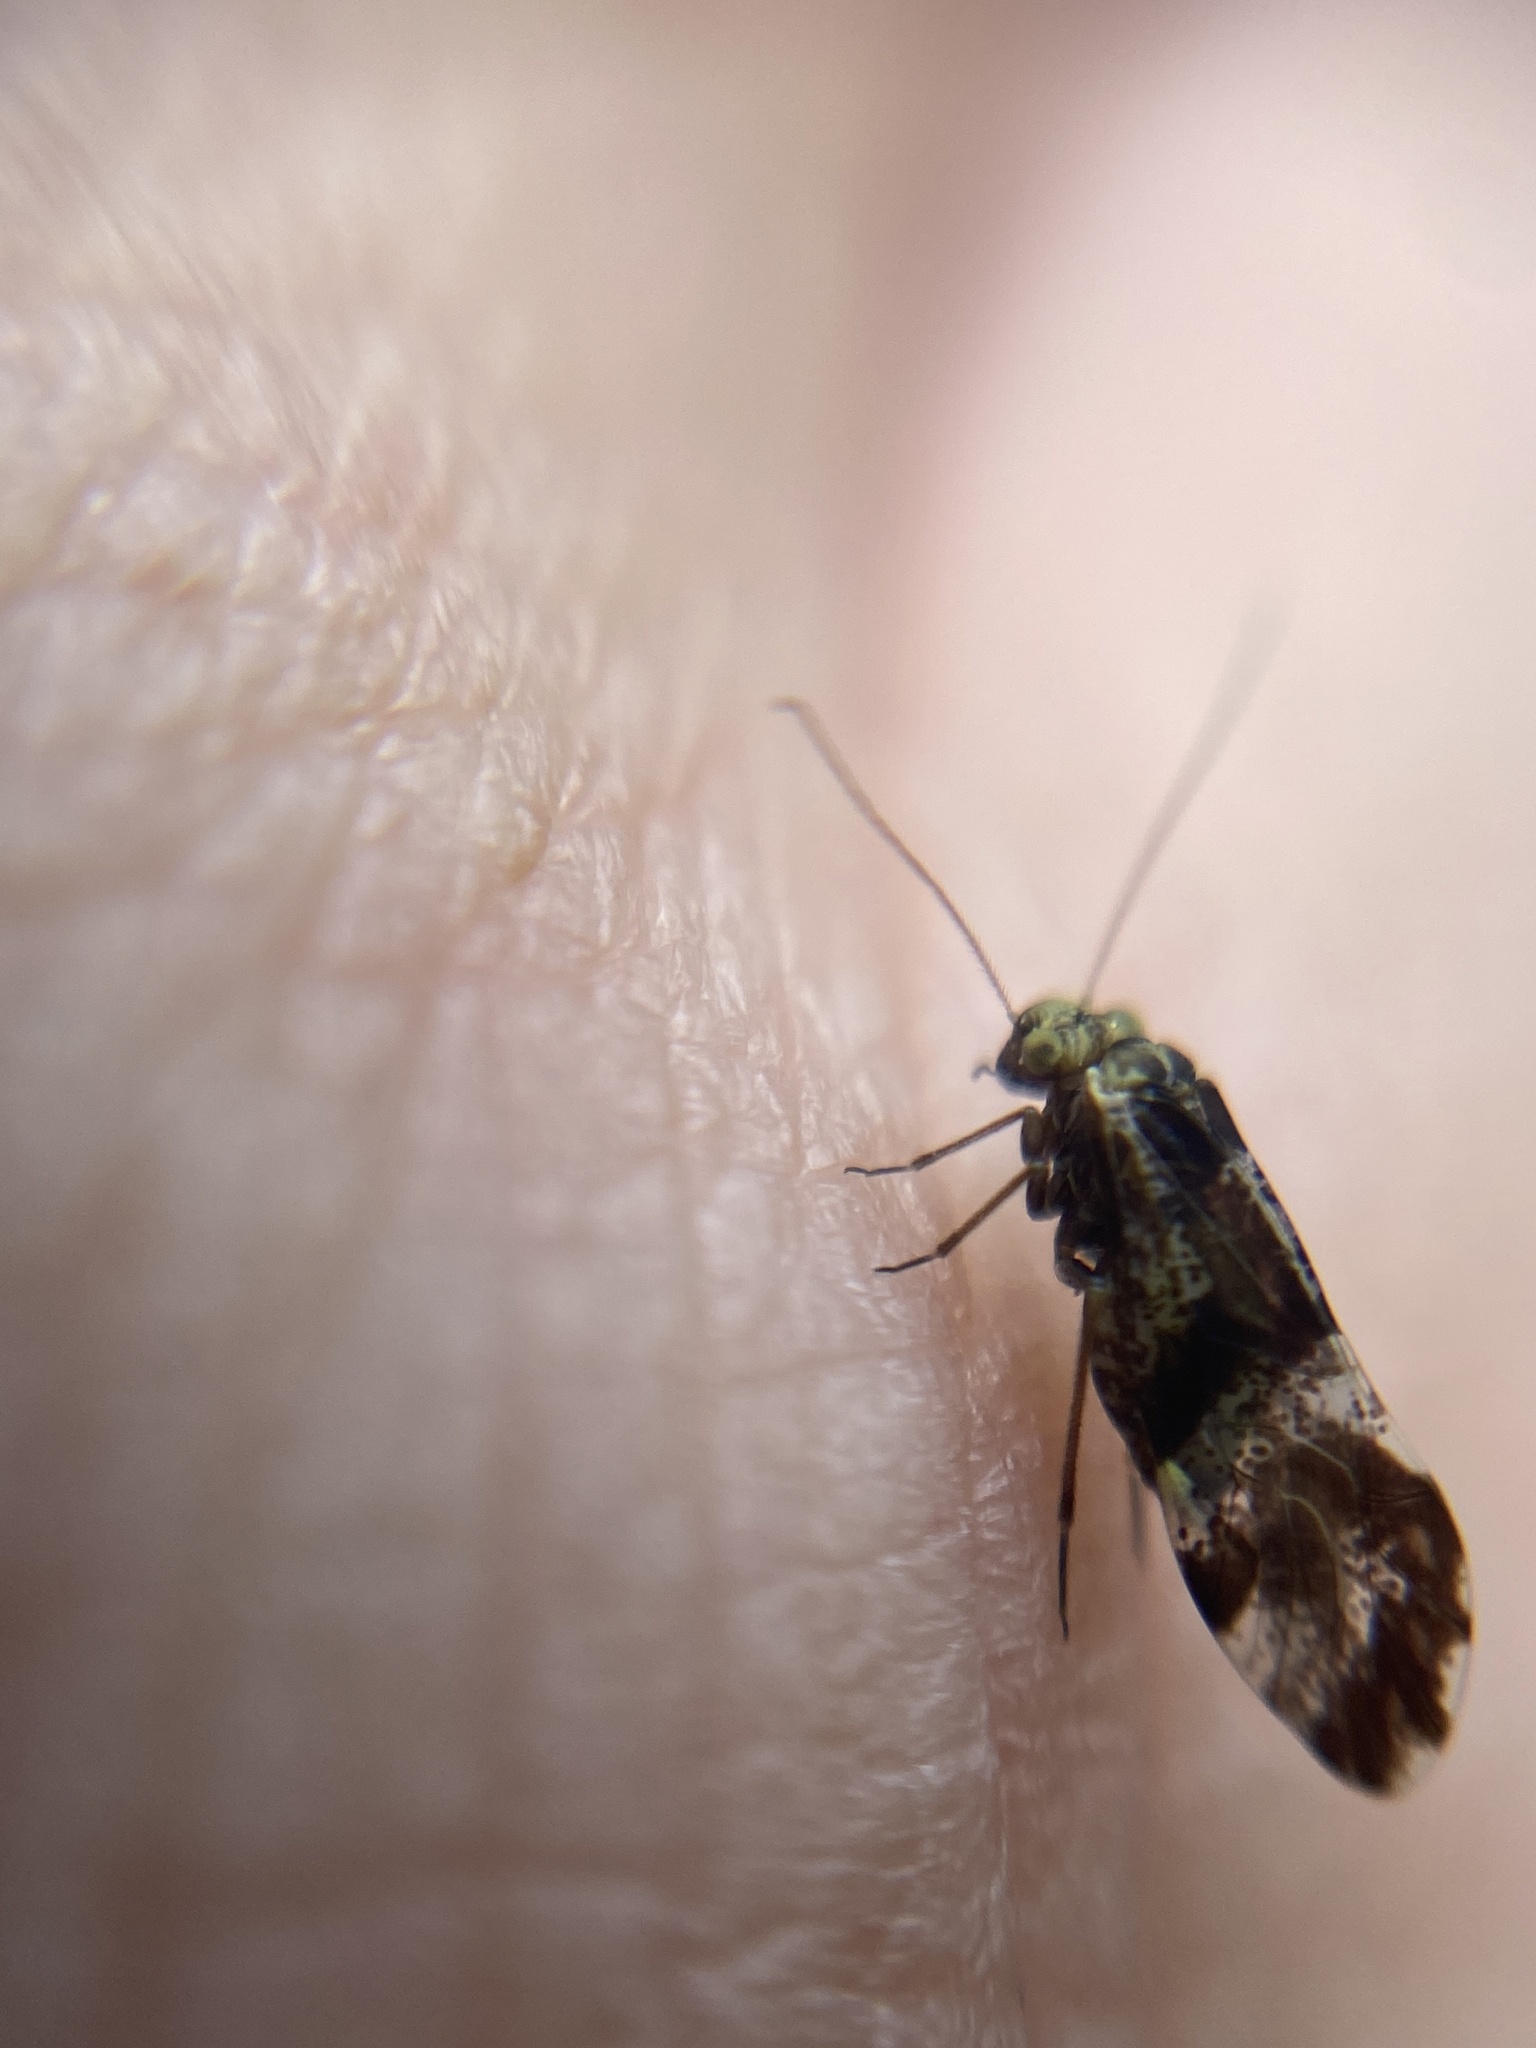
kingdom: Animalia
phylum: Arthropoda
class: Insecta
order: Psocodea
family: Psocidae
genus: Loensia
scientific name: Loensia fasciata
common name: Common bark louse
